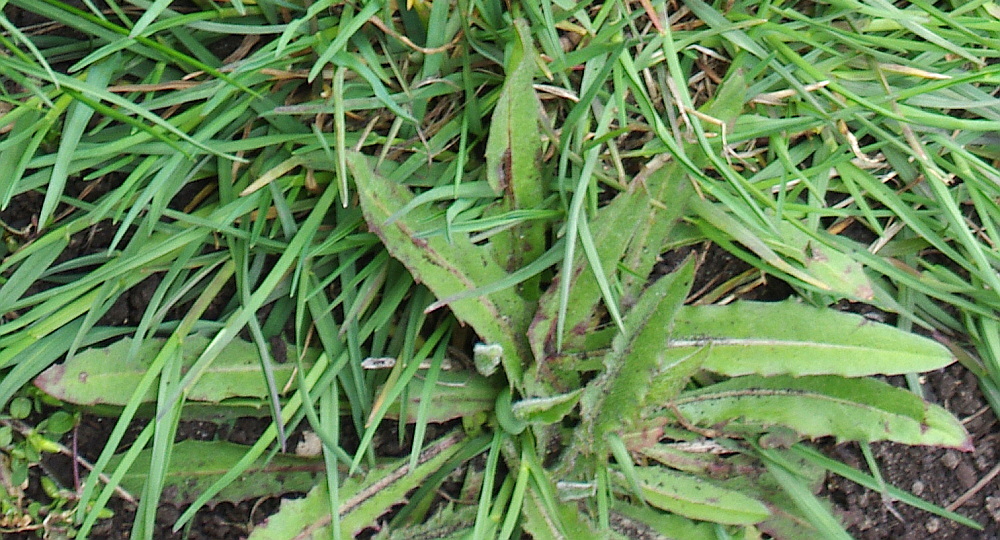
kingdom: Plantae
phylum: Tracheophyta
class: Magnoliopsida
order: Asterales
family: Asteraceae
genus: Cichorium
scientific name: Cichorium intybus
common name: Chicory
